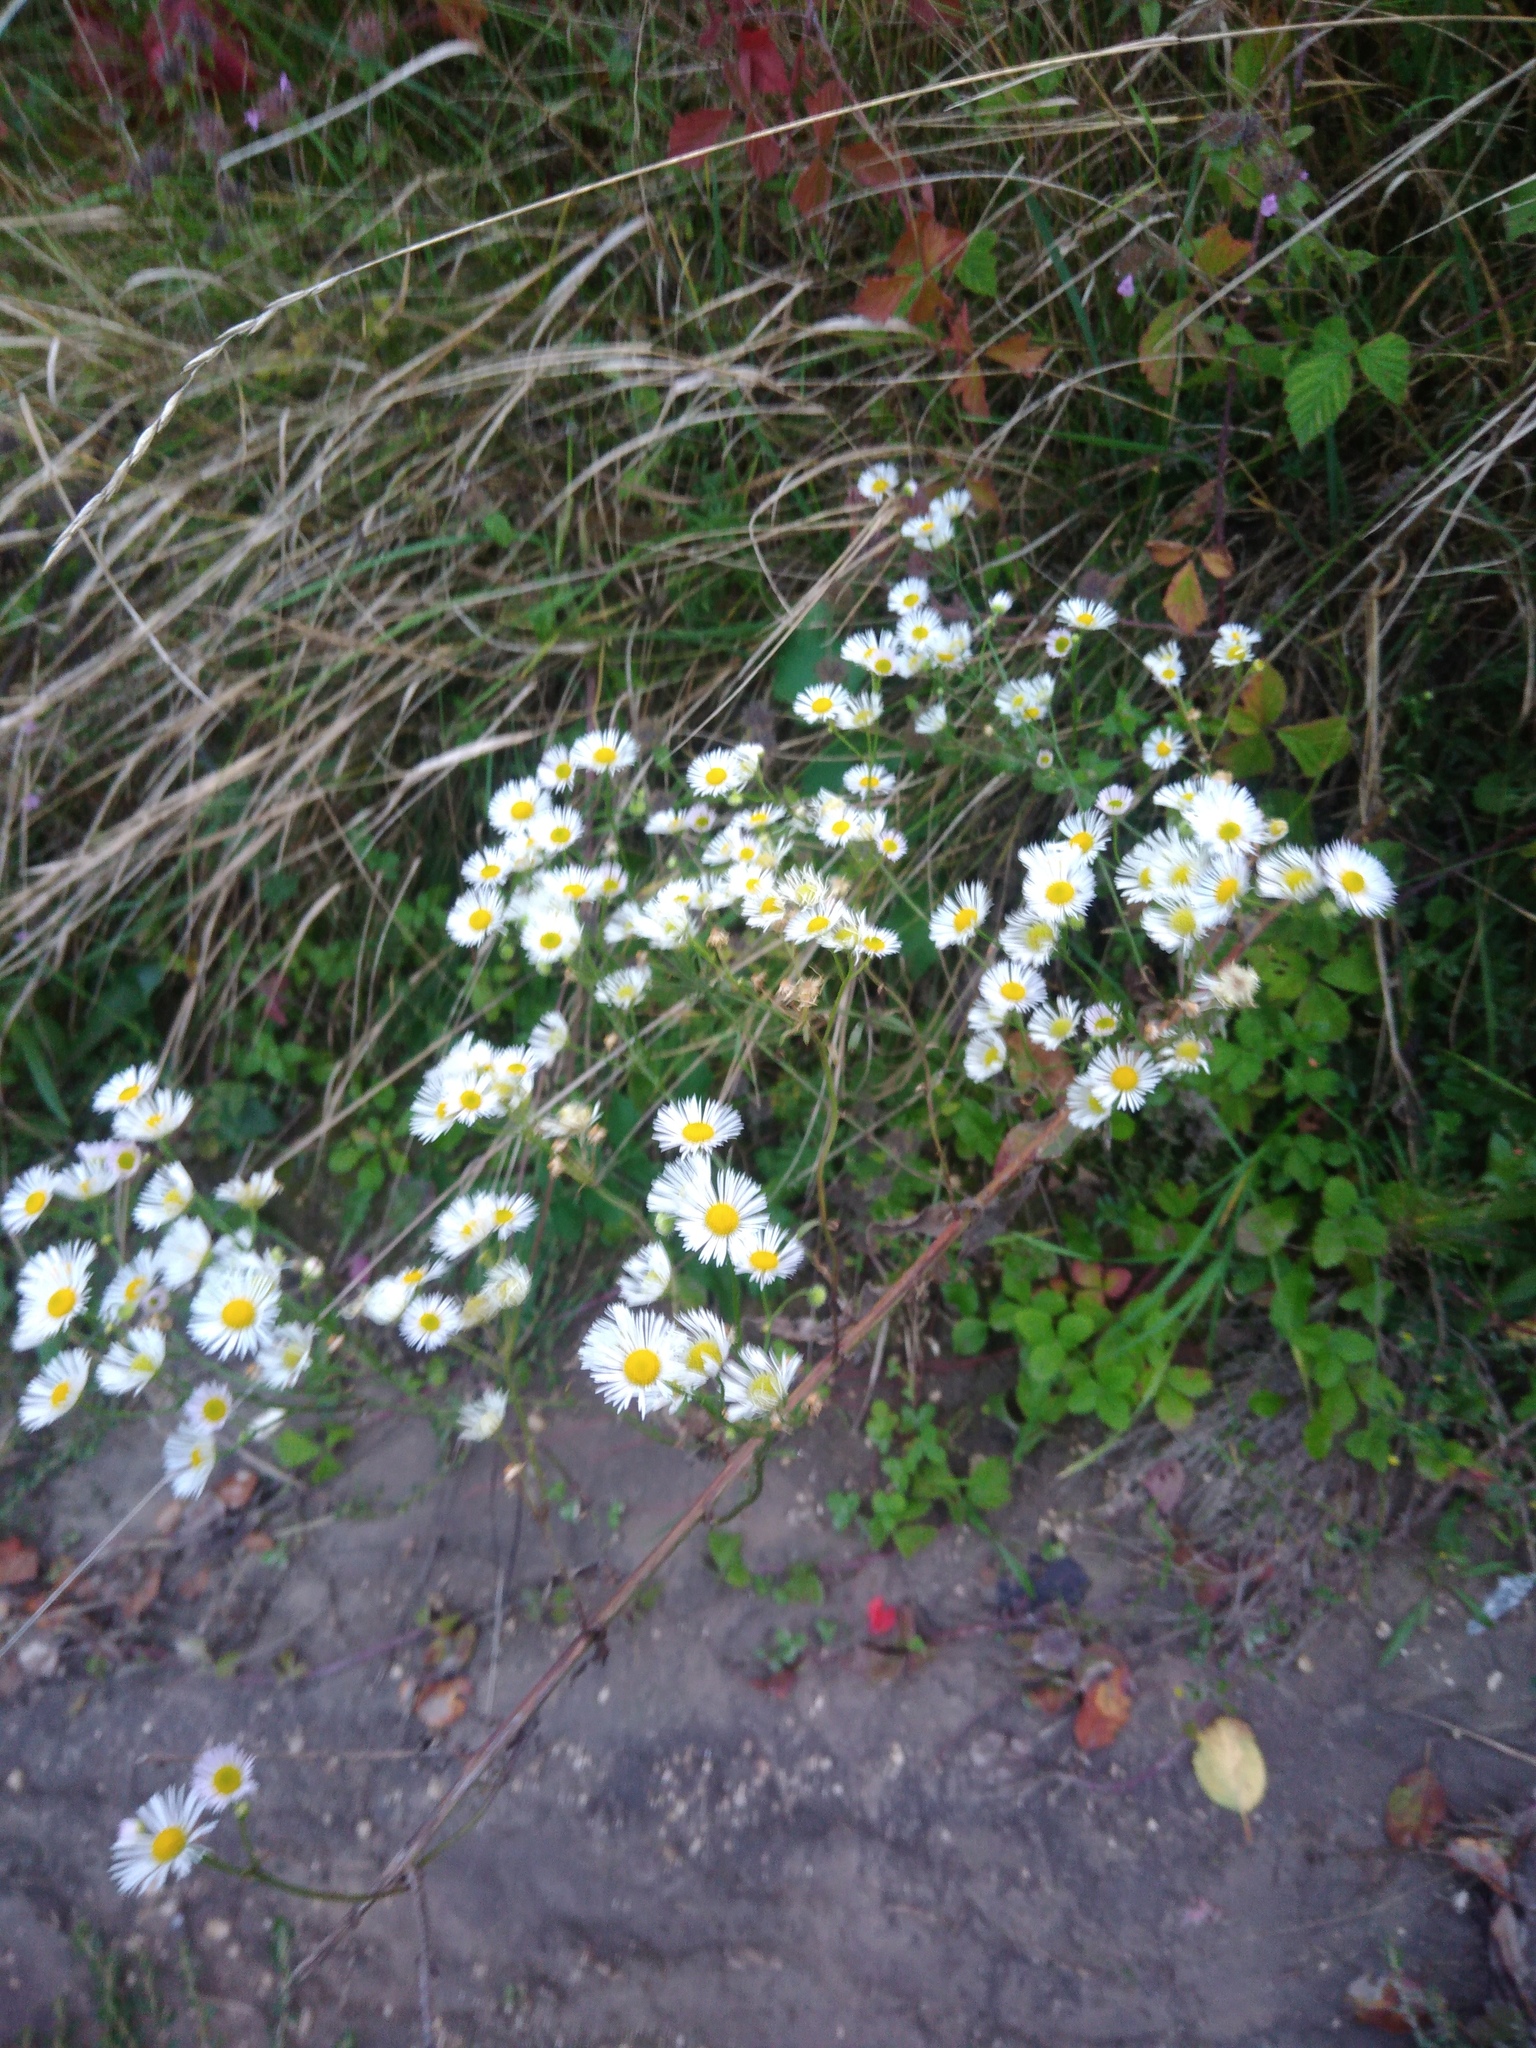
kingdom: Plantae
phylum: Tracheophyta
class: Magnoliopsida
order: Asterales
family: Asteraceae
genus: Erigeron
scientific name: Erigeron annuus
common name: Tall fleabane
